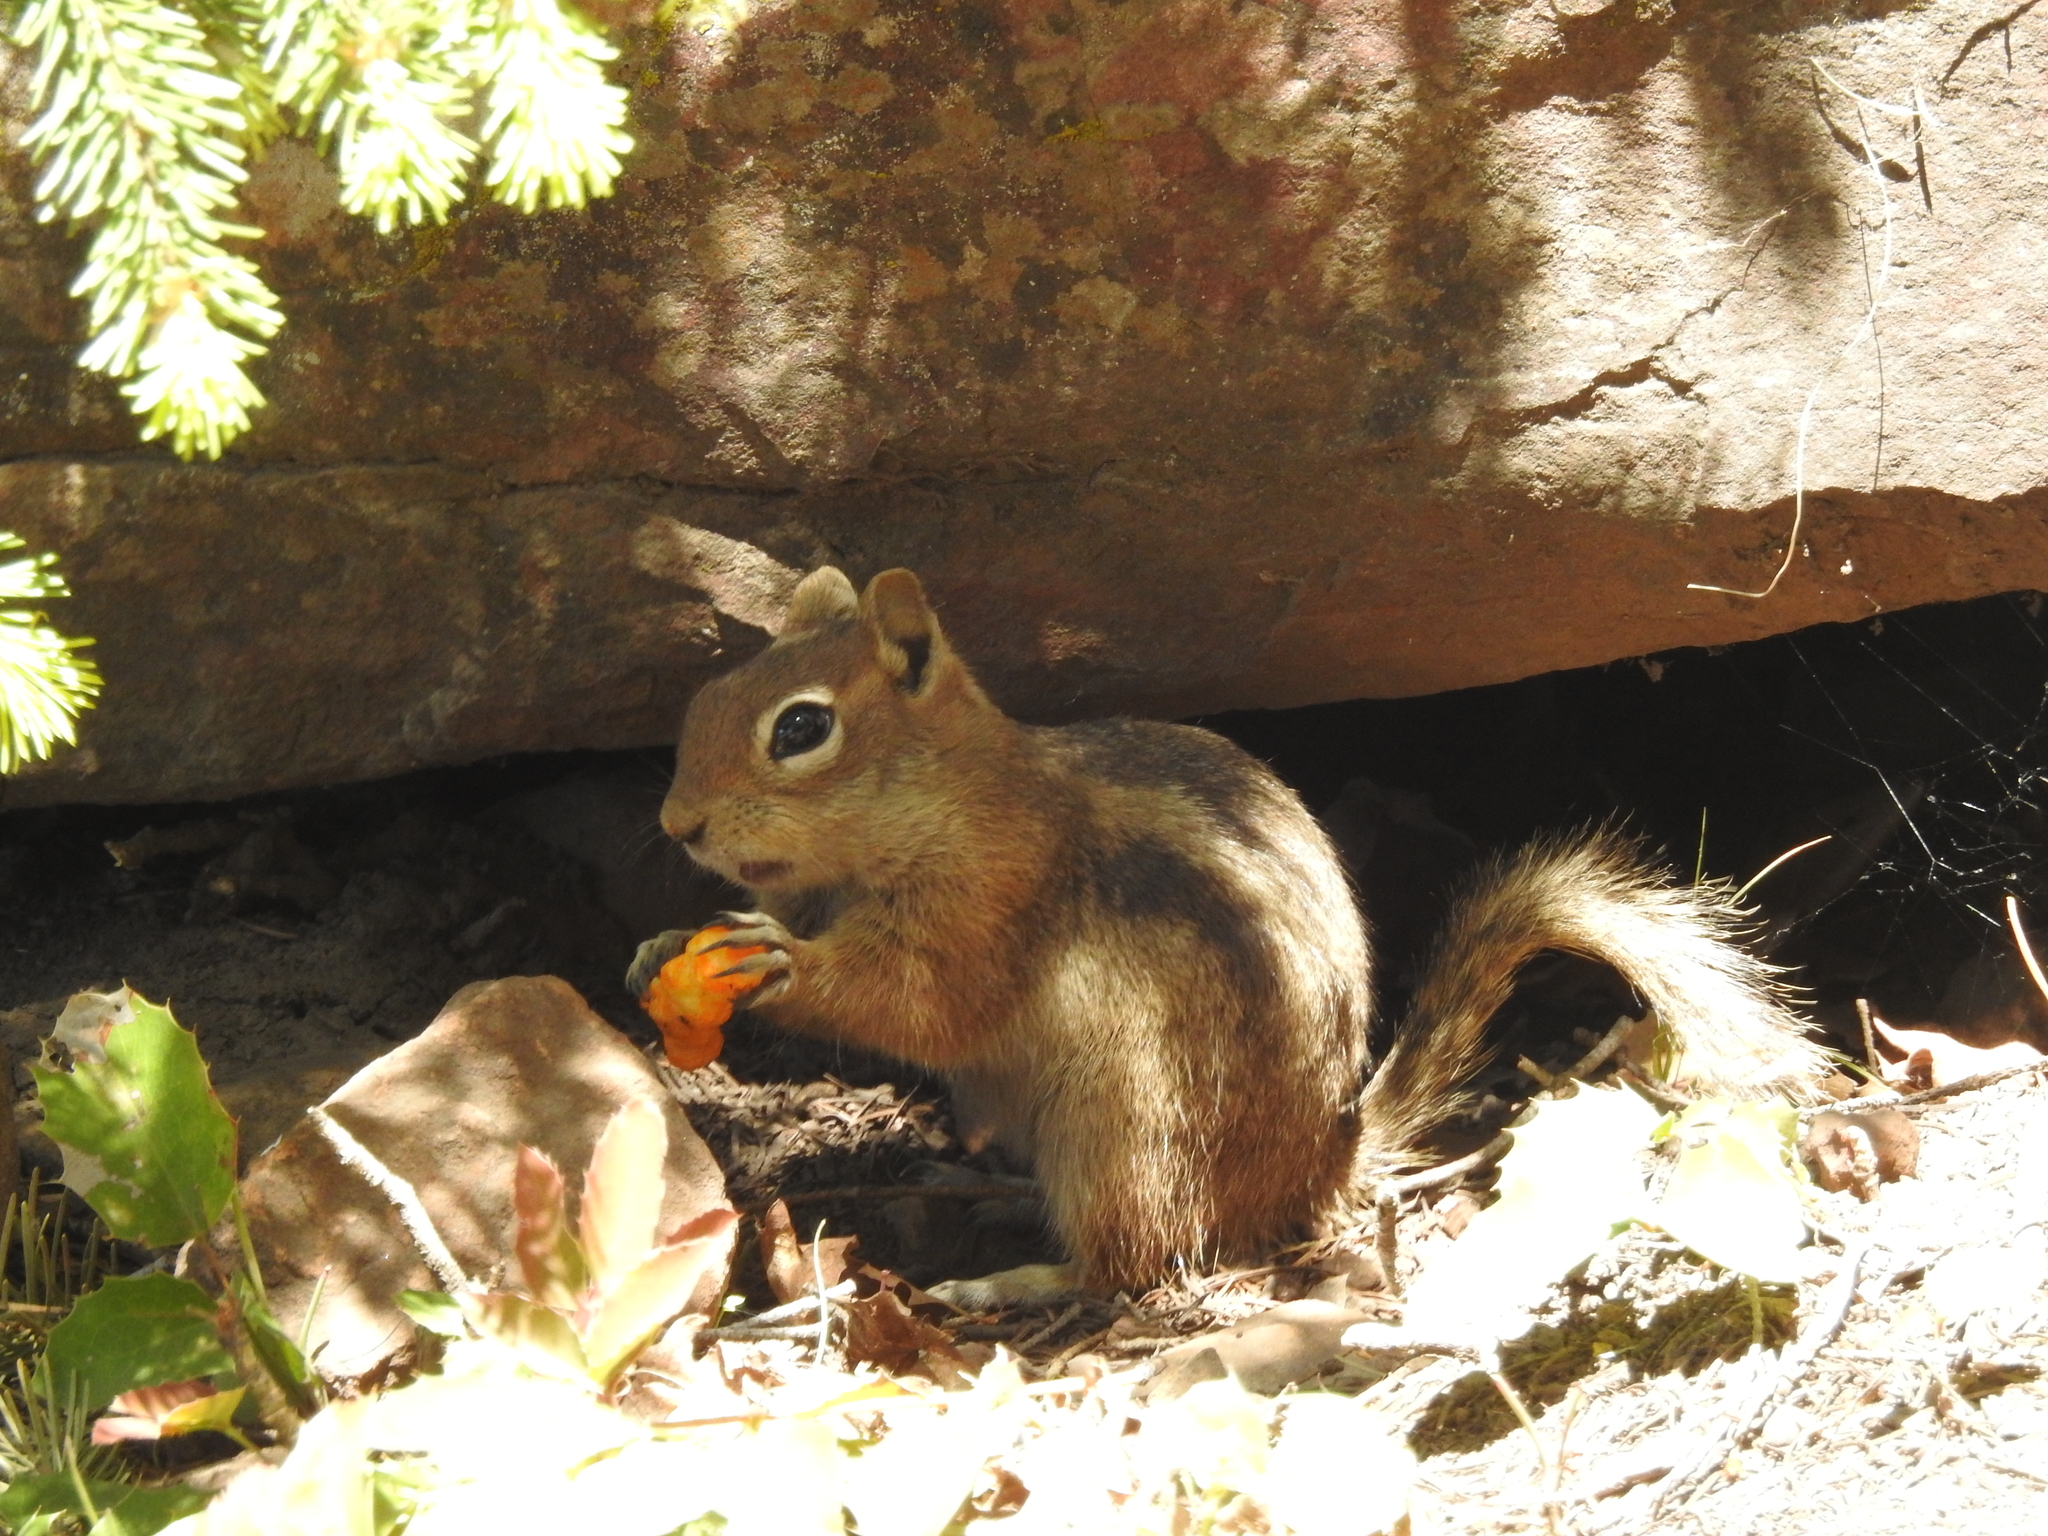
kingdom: Animalia
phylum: Chordata
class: Mammalia
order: Rodentia
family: Sciuridae
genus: Callospermophilus
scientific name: Callospermophilus lateralis
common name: Golden-mantled ground squirrel
